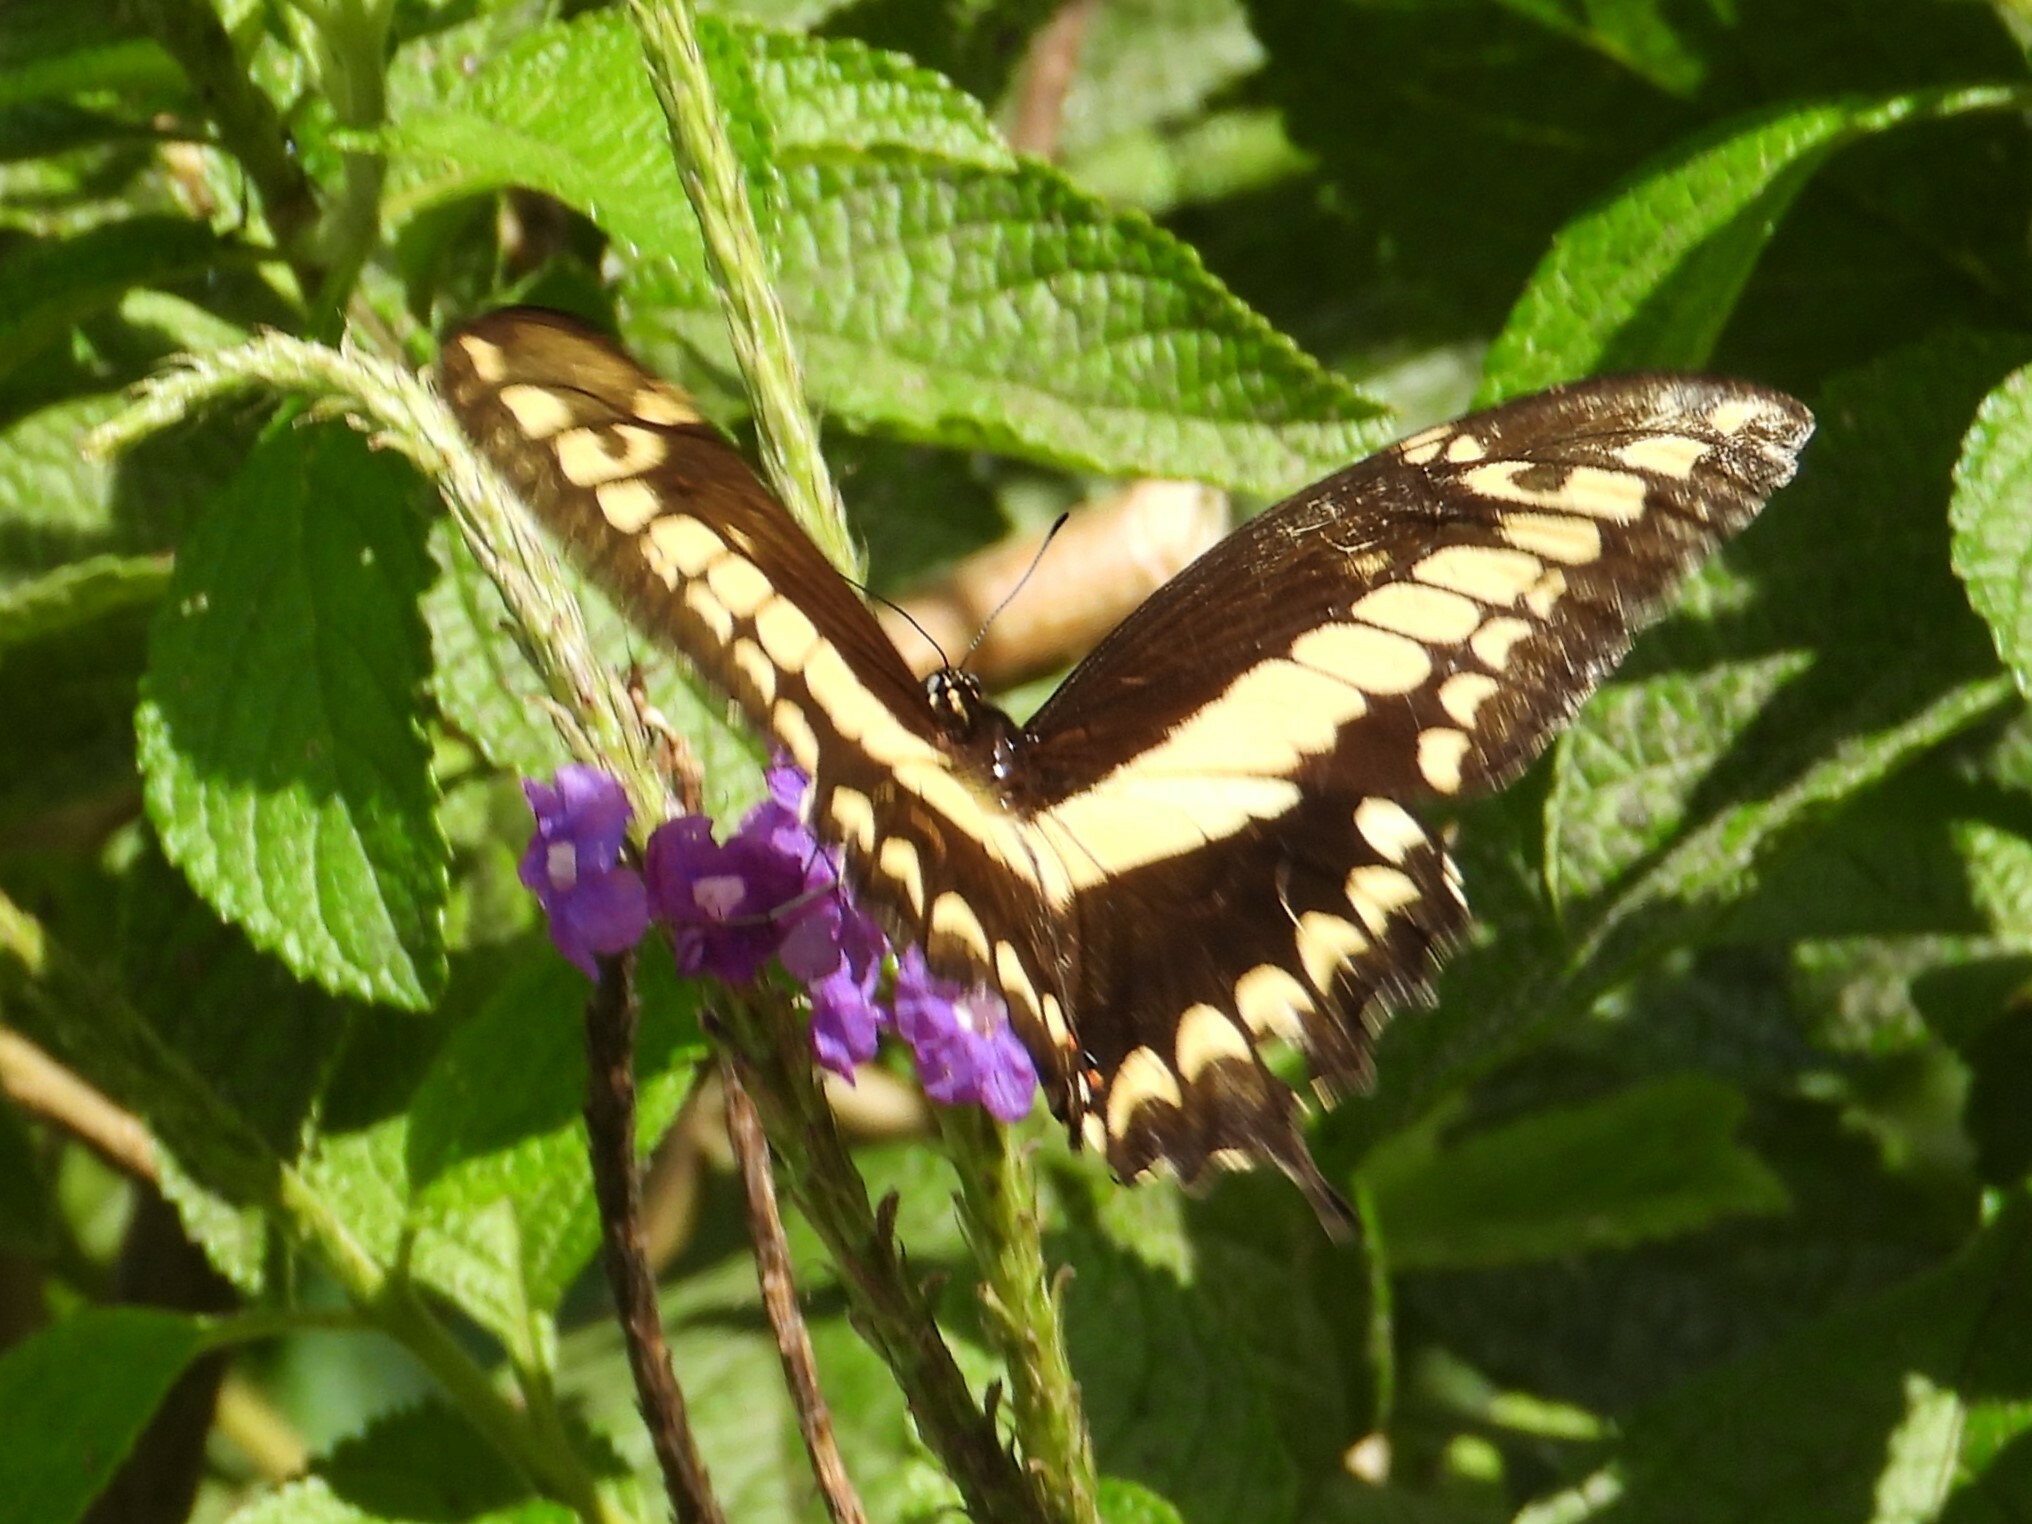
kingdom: Animalia
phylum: Arthropoda
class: Insecta
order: Lepidoptera
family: Papilionidae
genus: Papilio
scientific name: Papilio thoas
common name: King swallowtail
